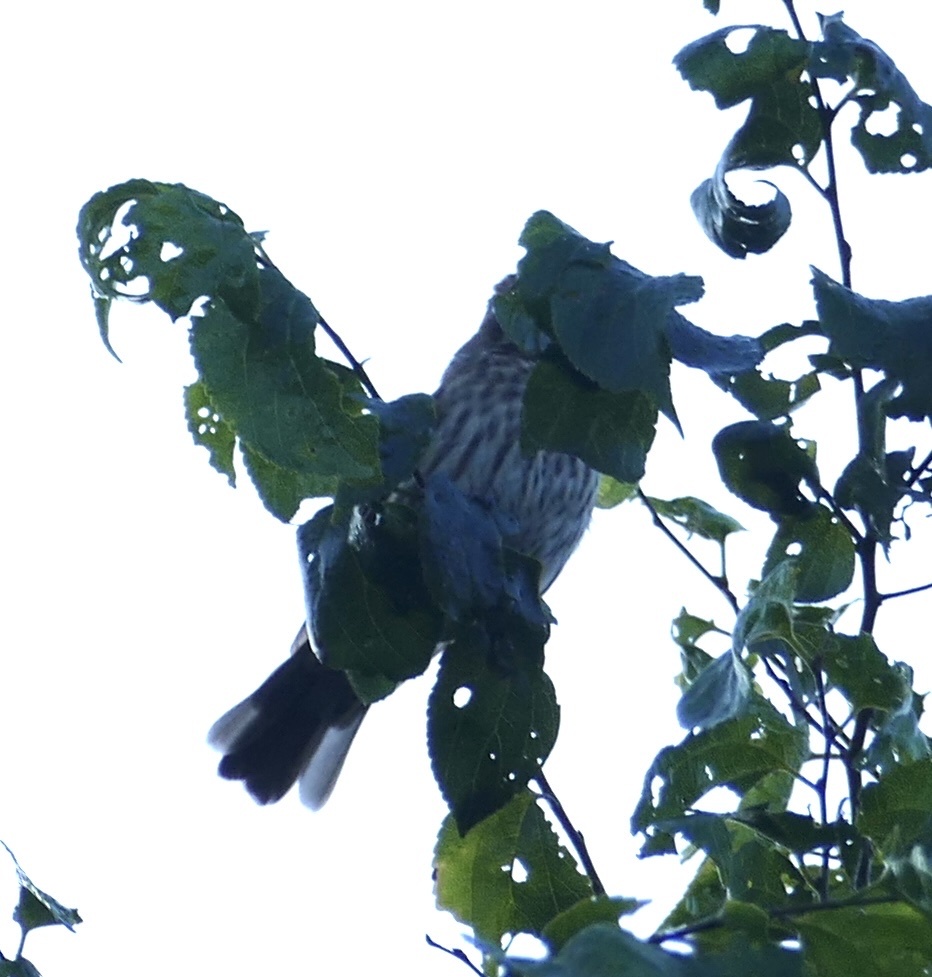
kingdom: Animalia
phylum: Chordata
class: Aves
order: Passeriformes
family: Ploceidae
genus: Amblyospiza
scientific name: Amblyospiza albifrons
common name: Thick-billed weaver
